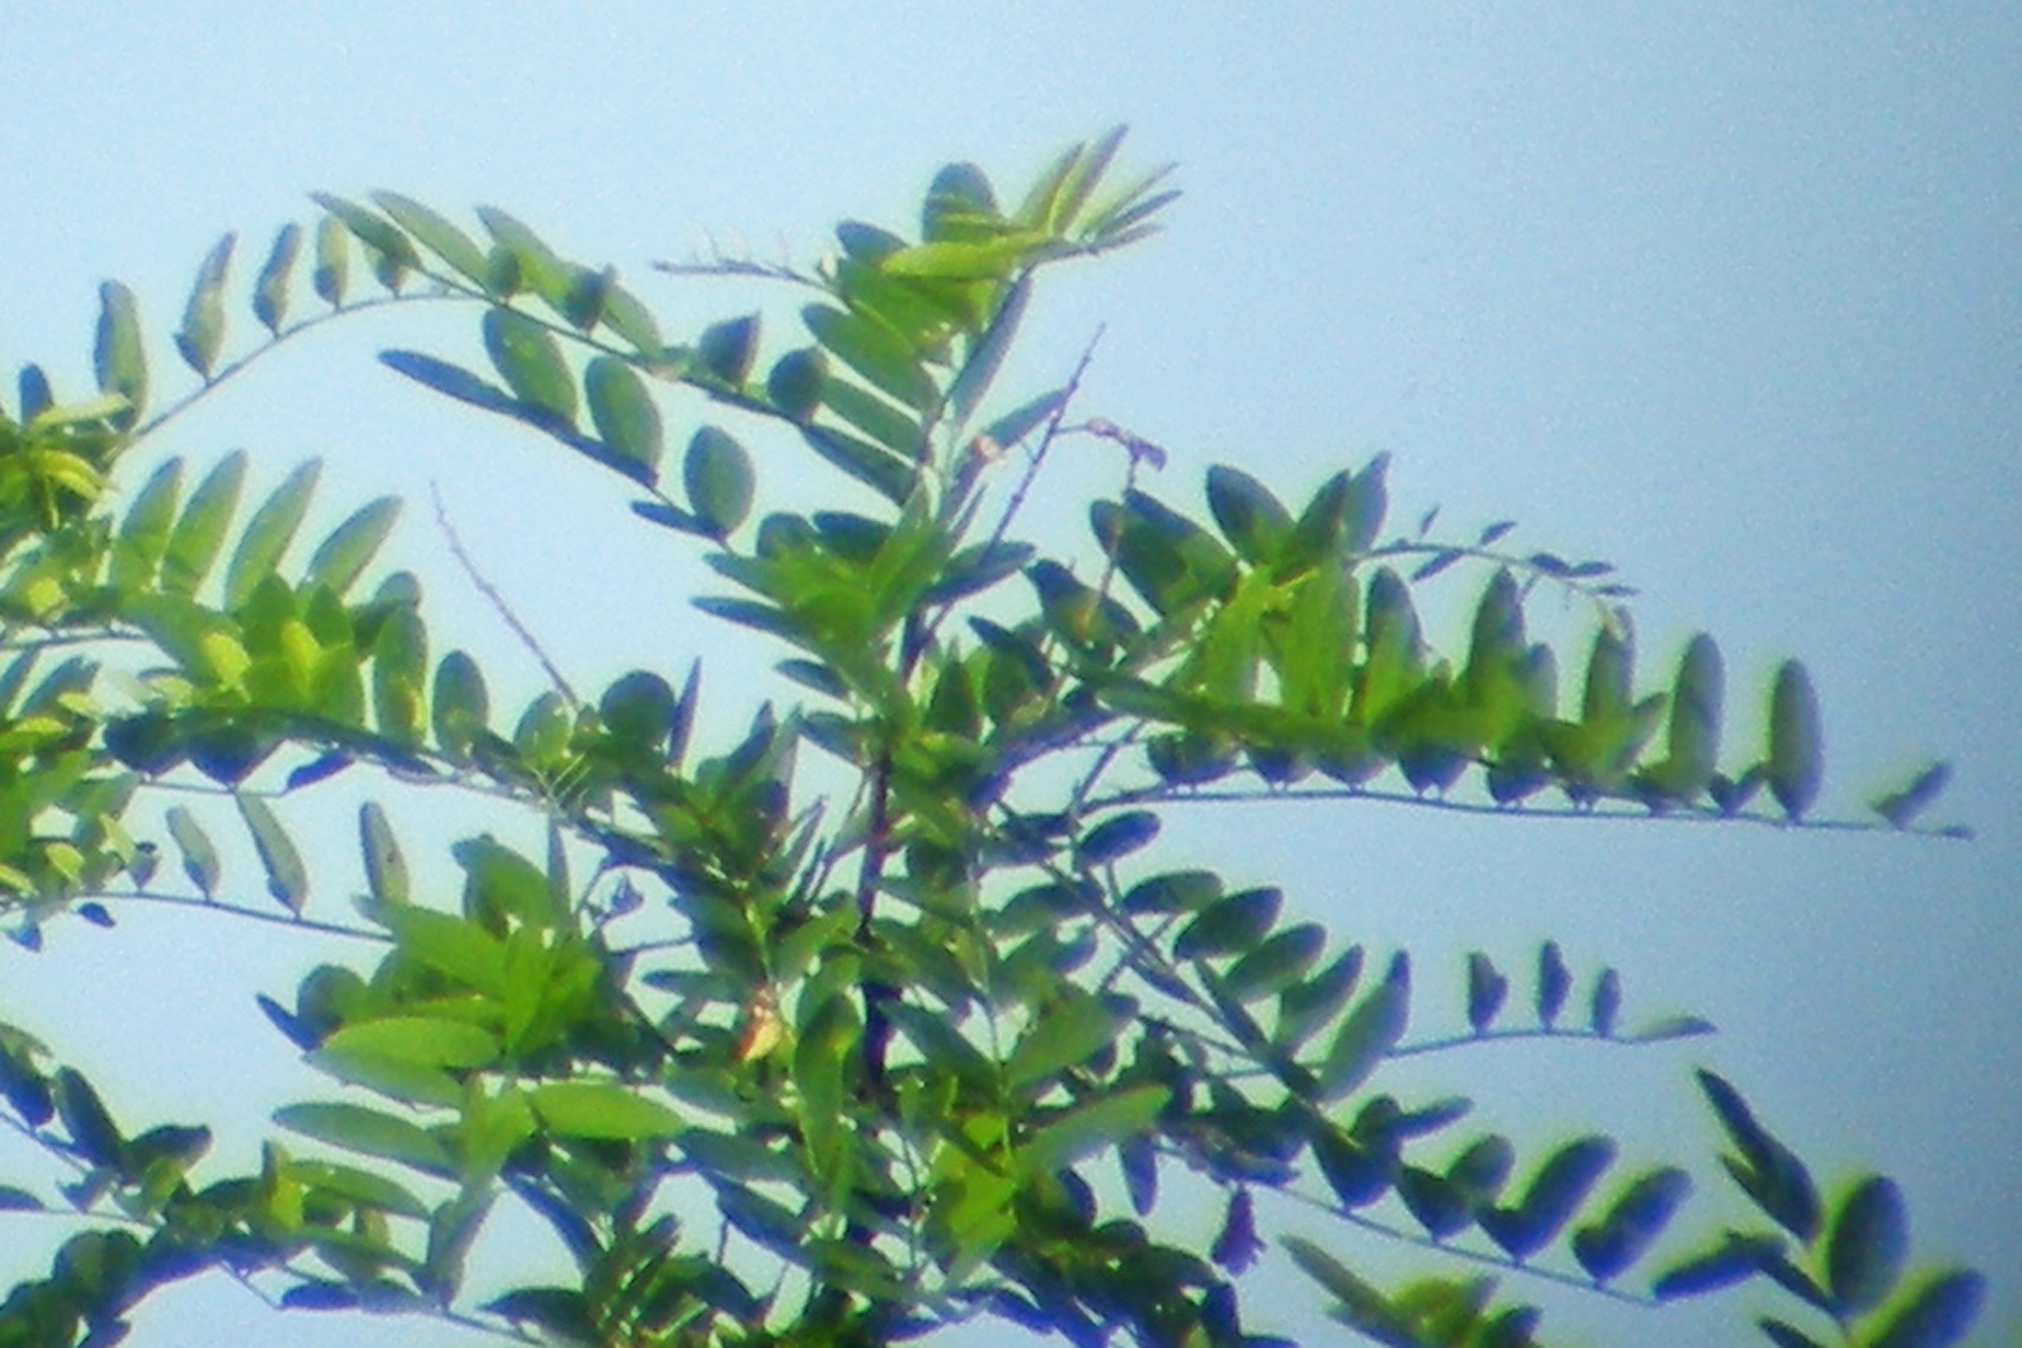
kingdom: Plantae
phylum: Tracheophyta
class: Magnoliopsida
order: Fabales
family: Fabaceae
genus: Robinia
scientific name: Robinia pseudoacacia
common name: Black locust
